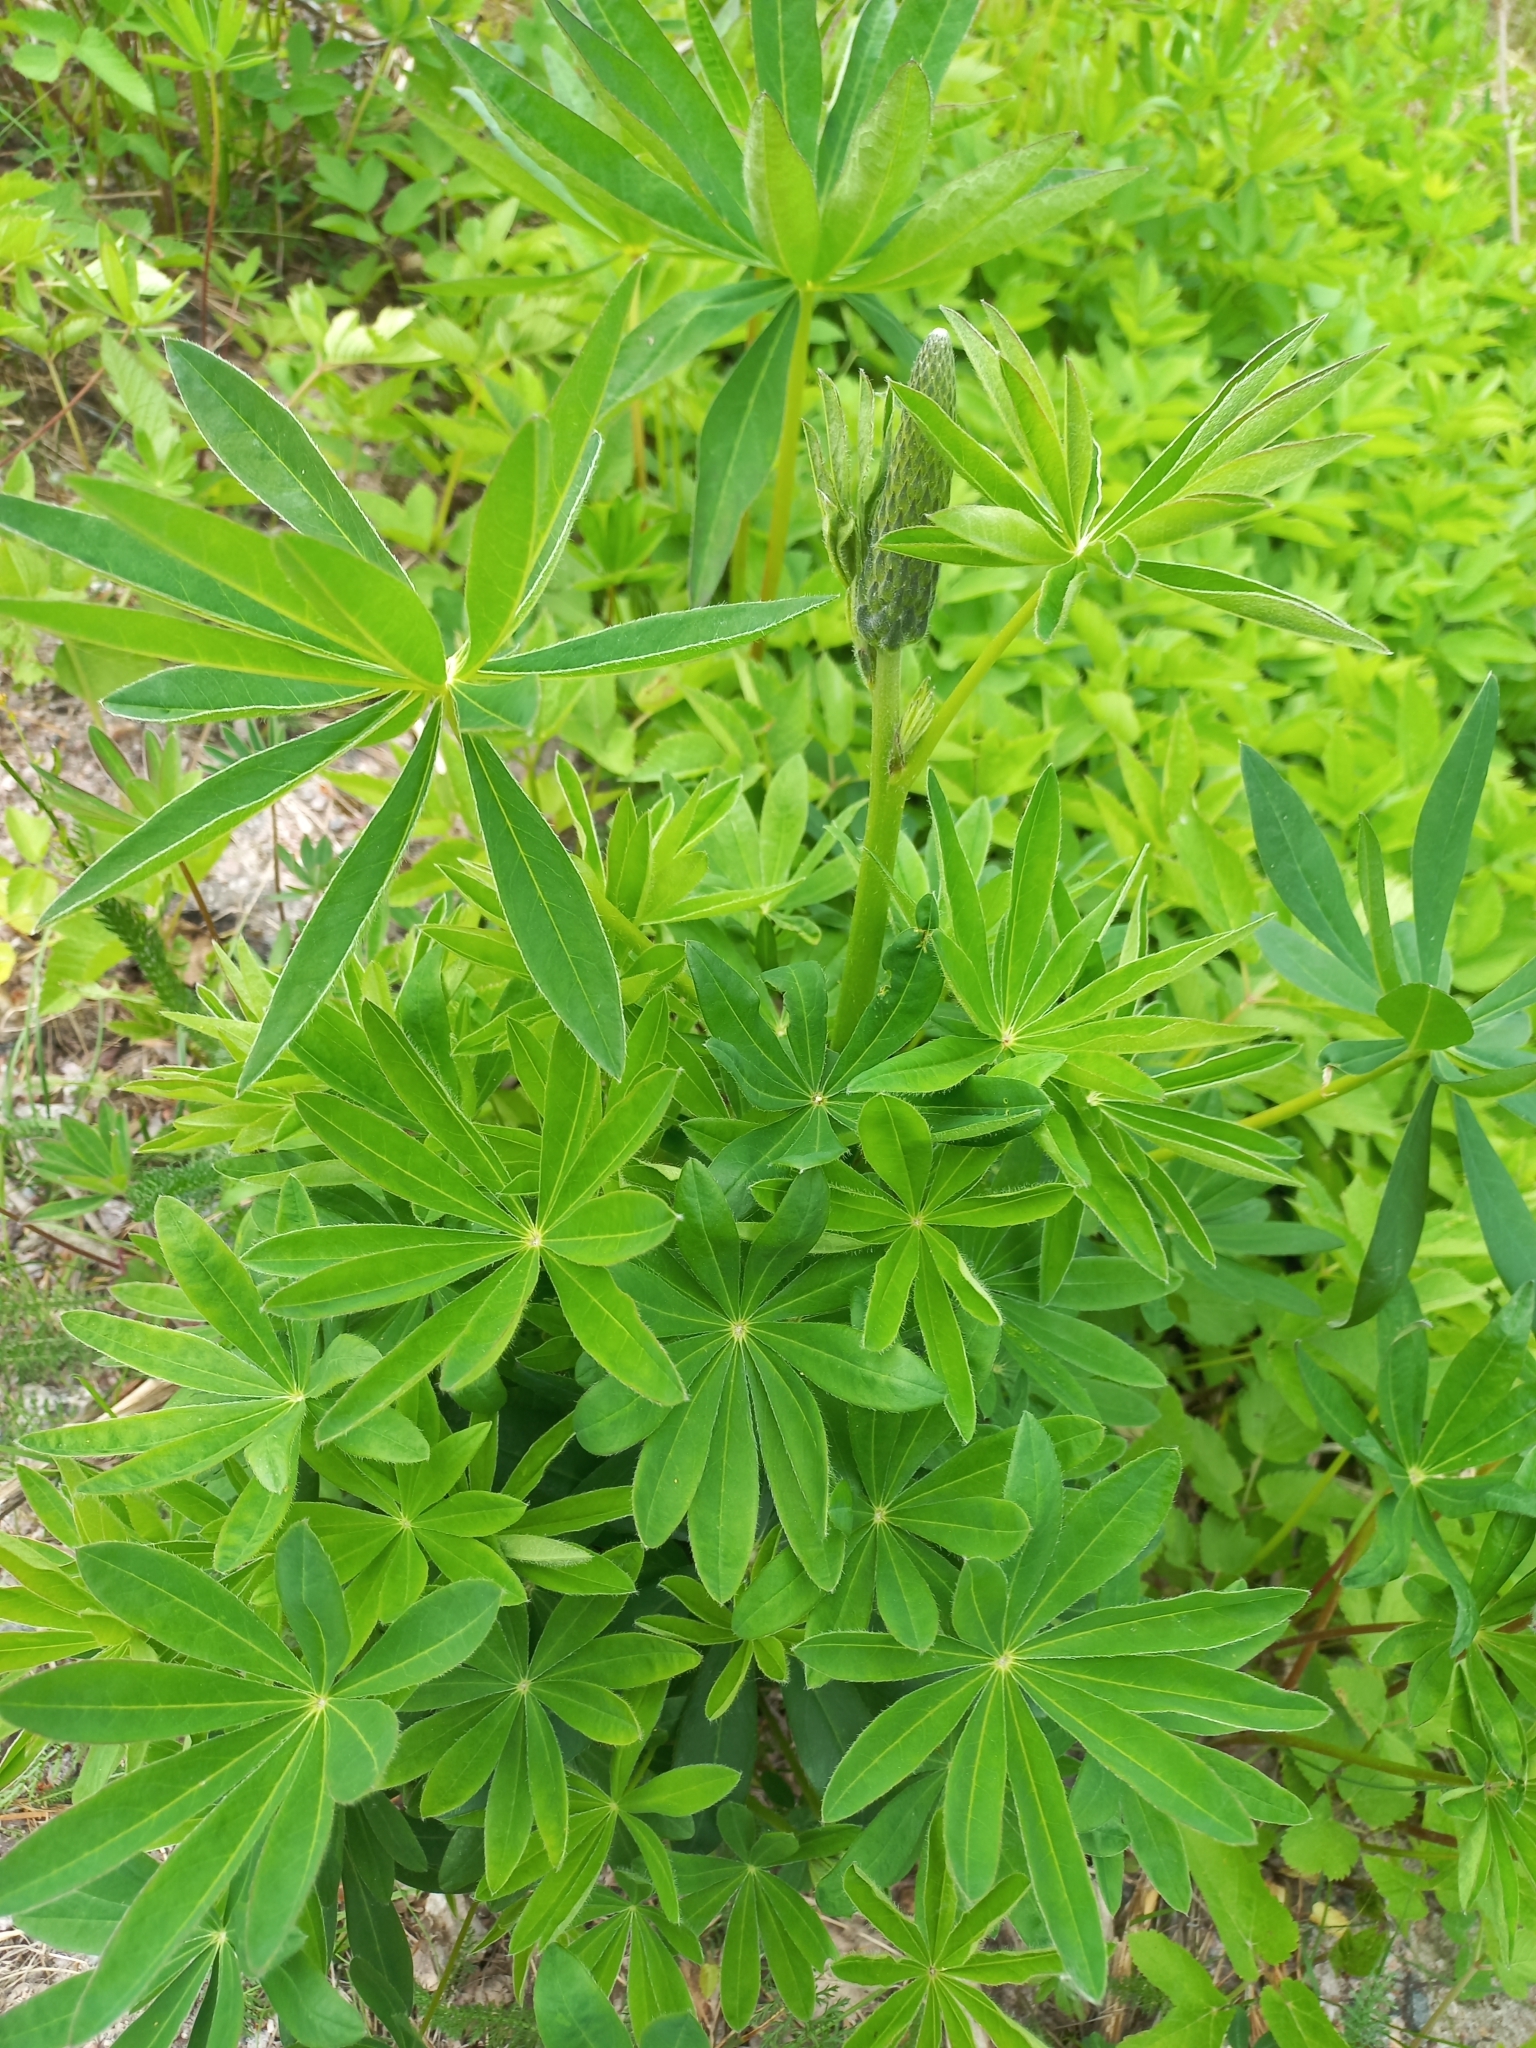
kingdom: Plantae
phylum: Tracheophyta
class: Magnoliopsida
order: Fabales
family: Fabaceae
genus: Lupinus
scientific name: Lupinus polyphyllus
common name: Garden lupin
